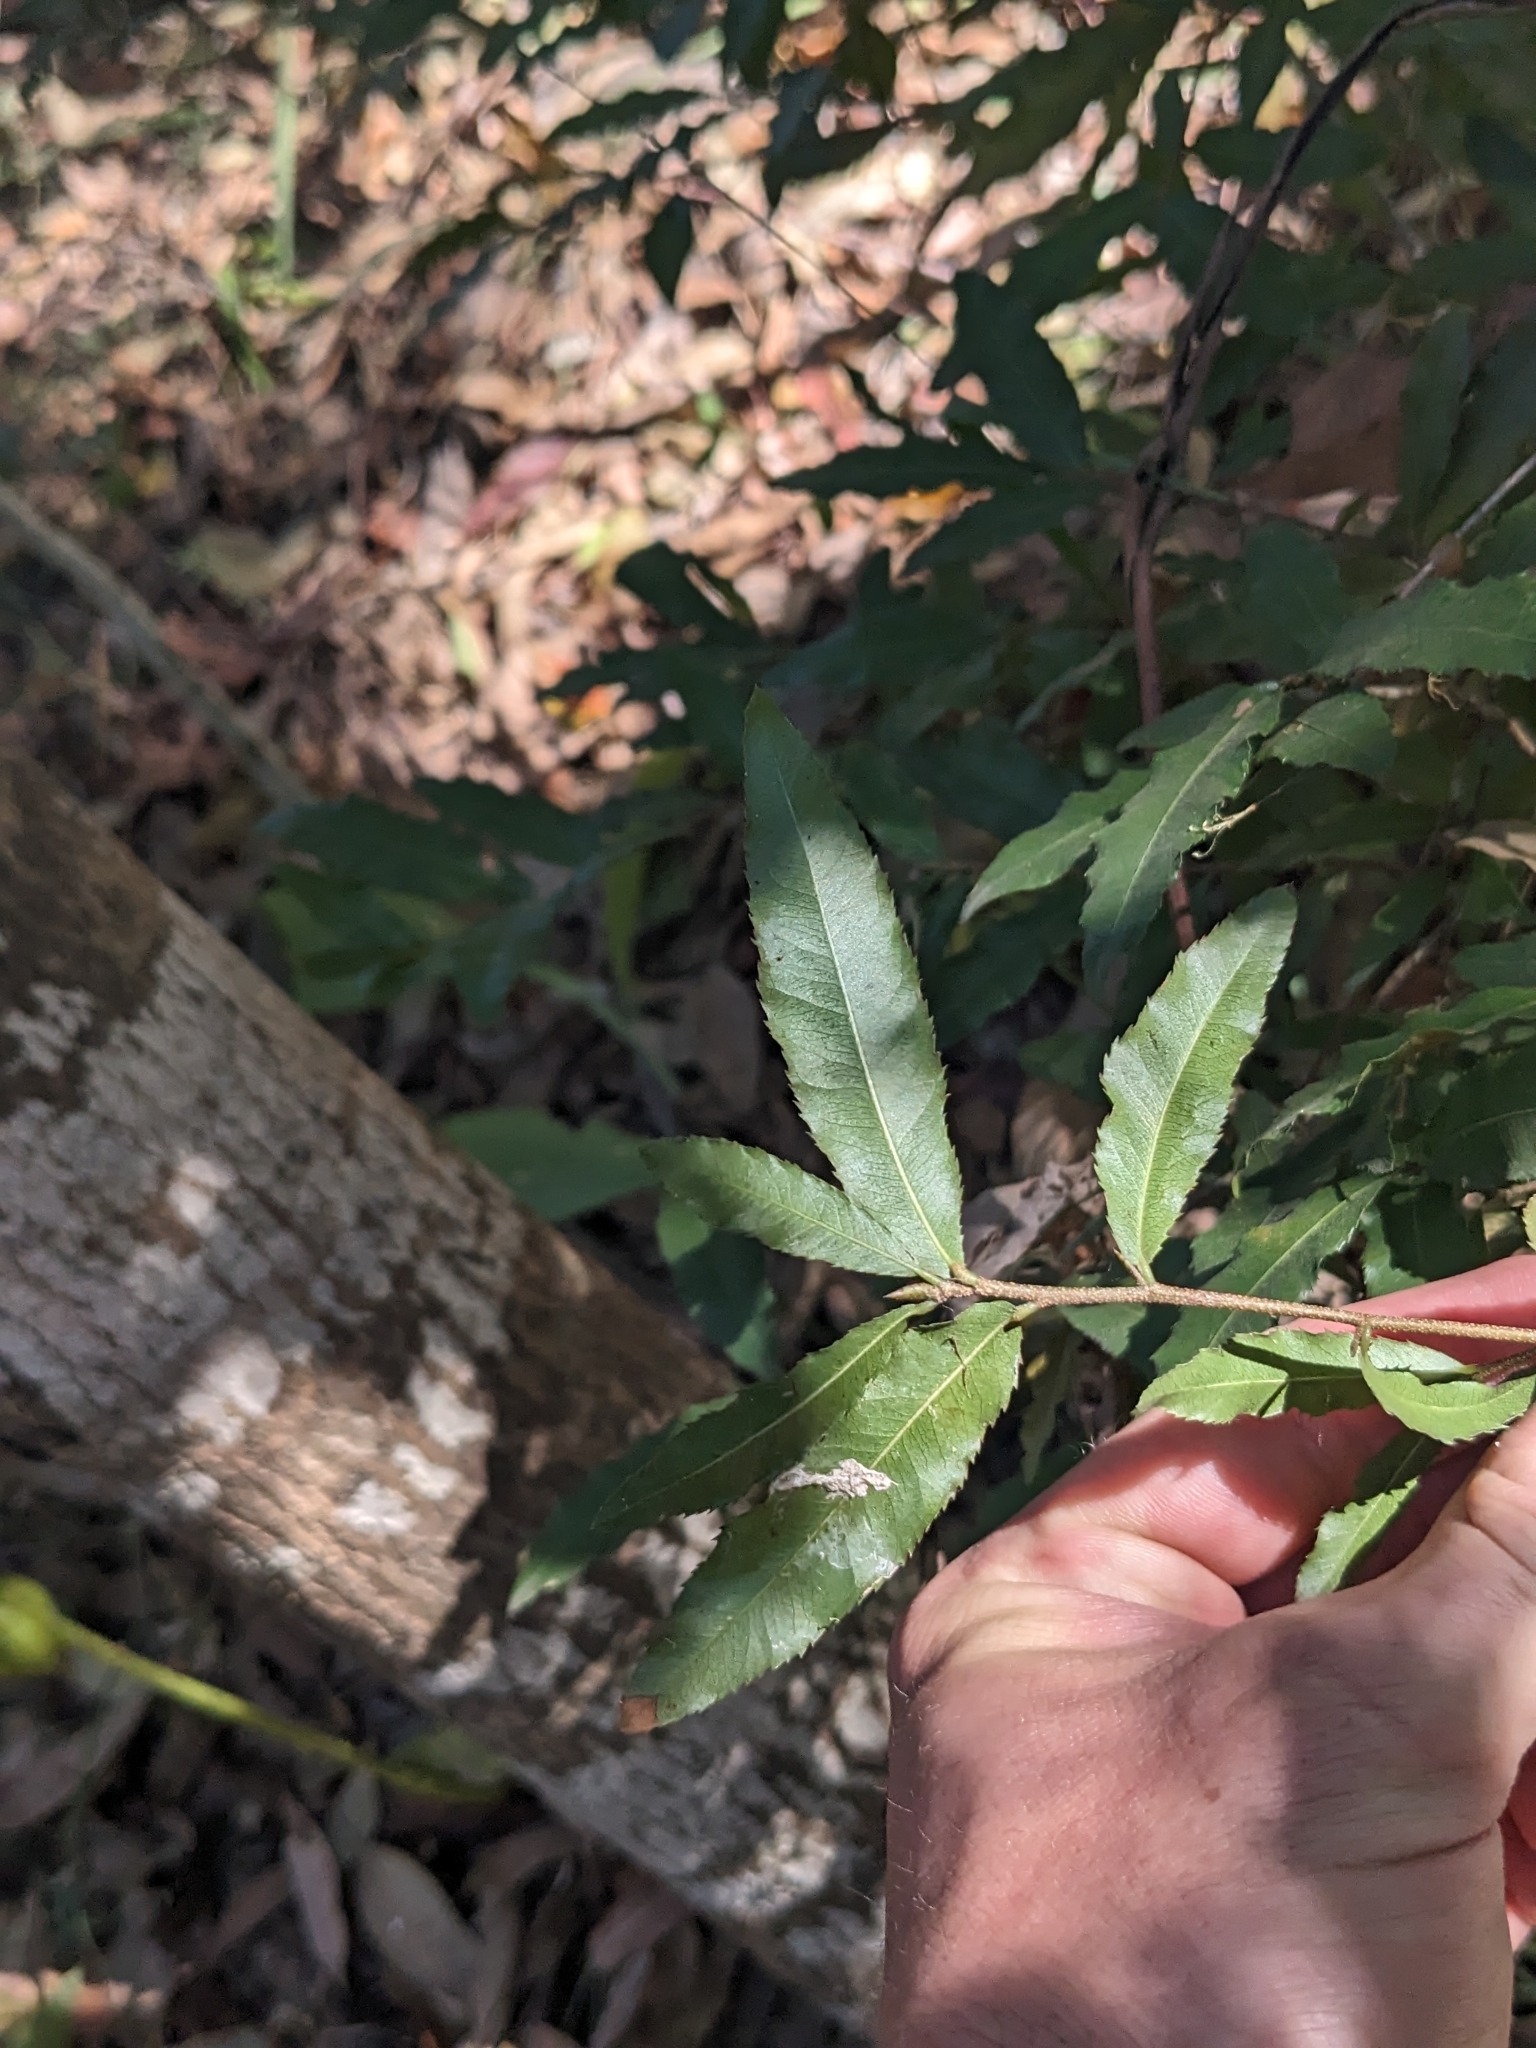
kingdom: Plantae
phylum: Tracheophyta
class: Magnoliopsida
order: Malpighiales
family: Ochnaceae
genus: Ochna
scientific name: Ochna serrulata
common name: Mickey mouse plant
